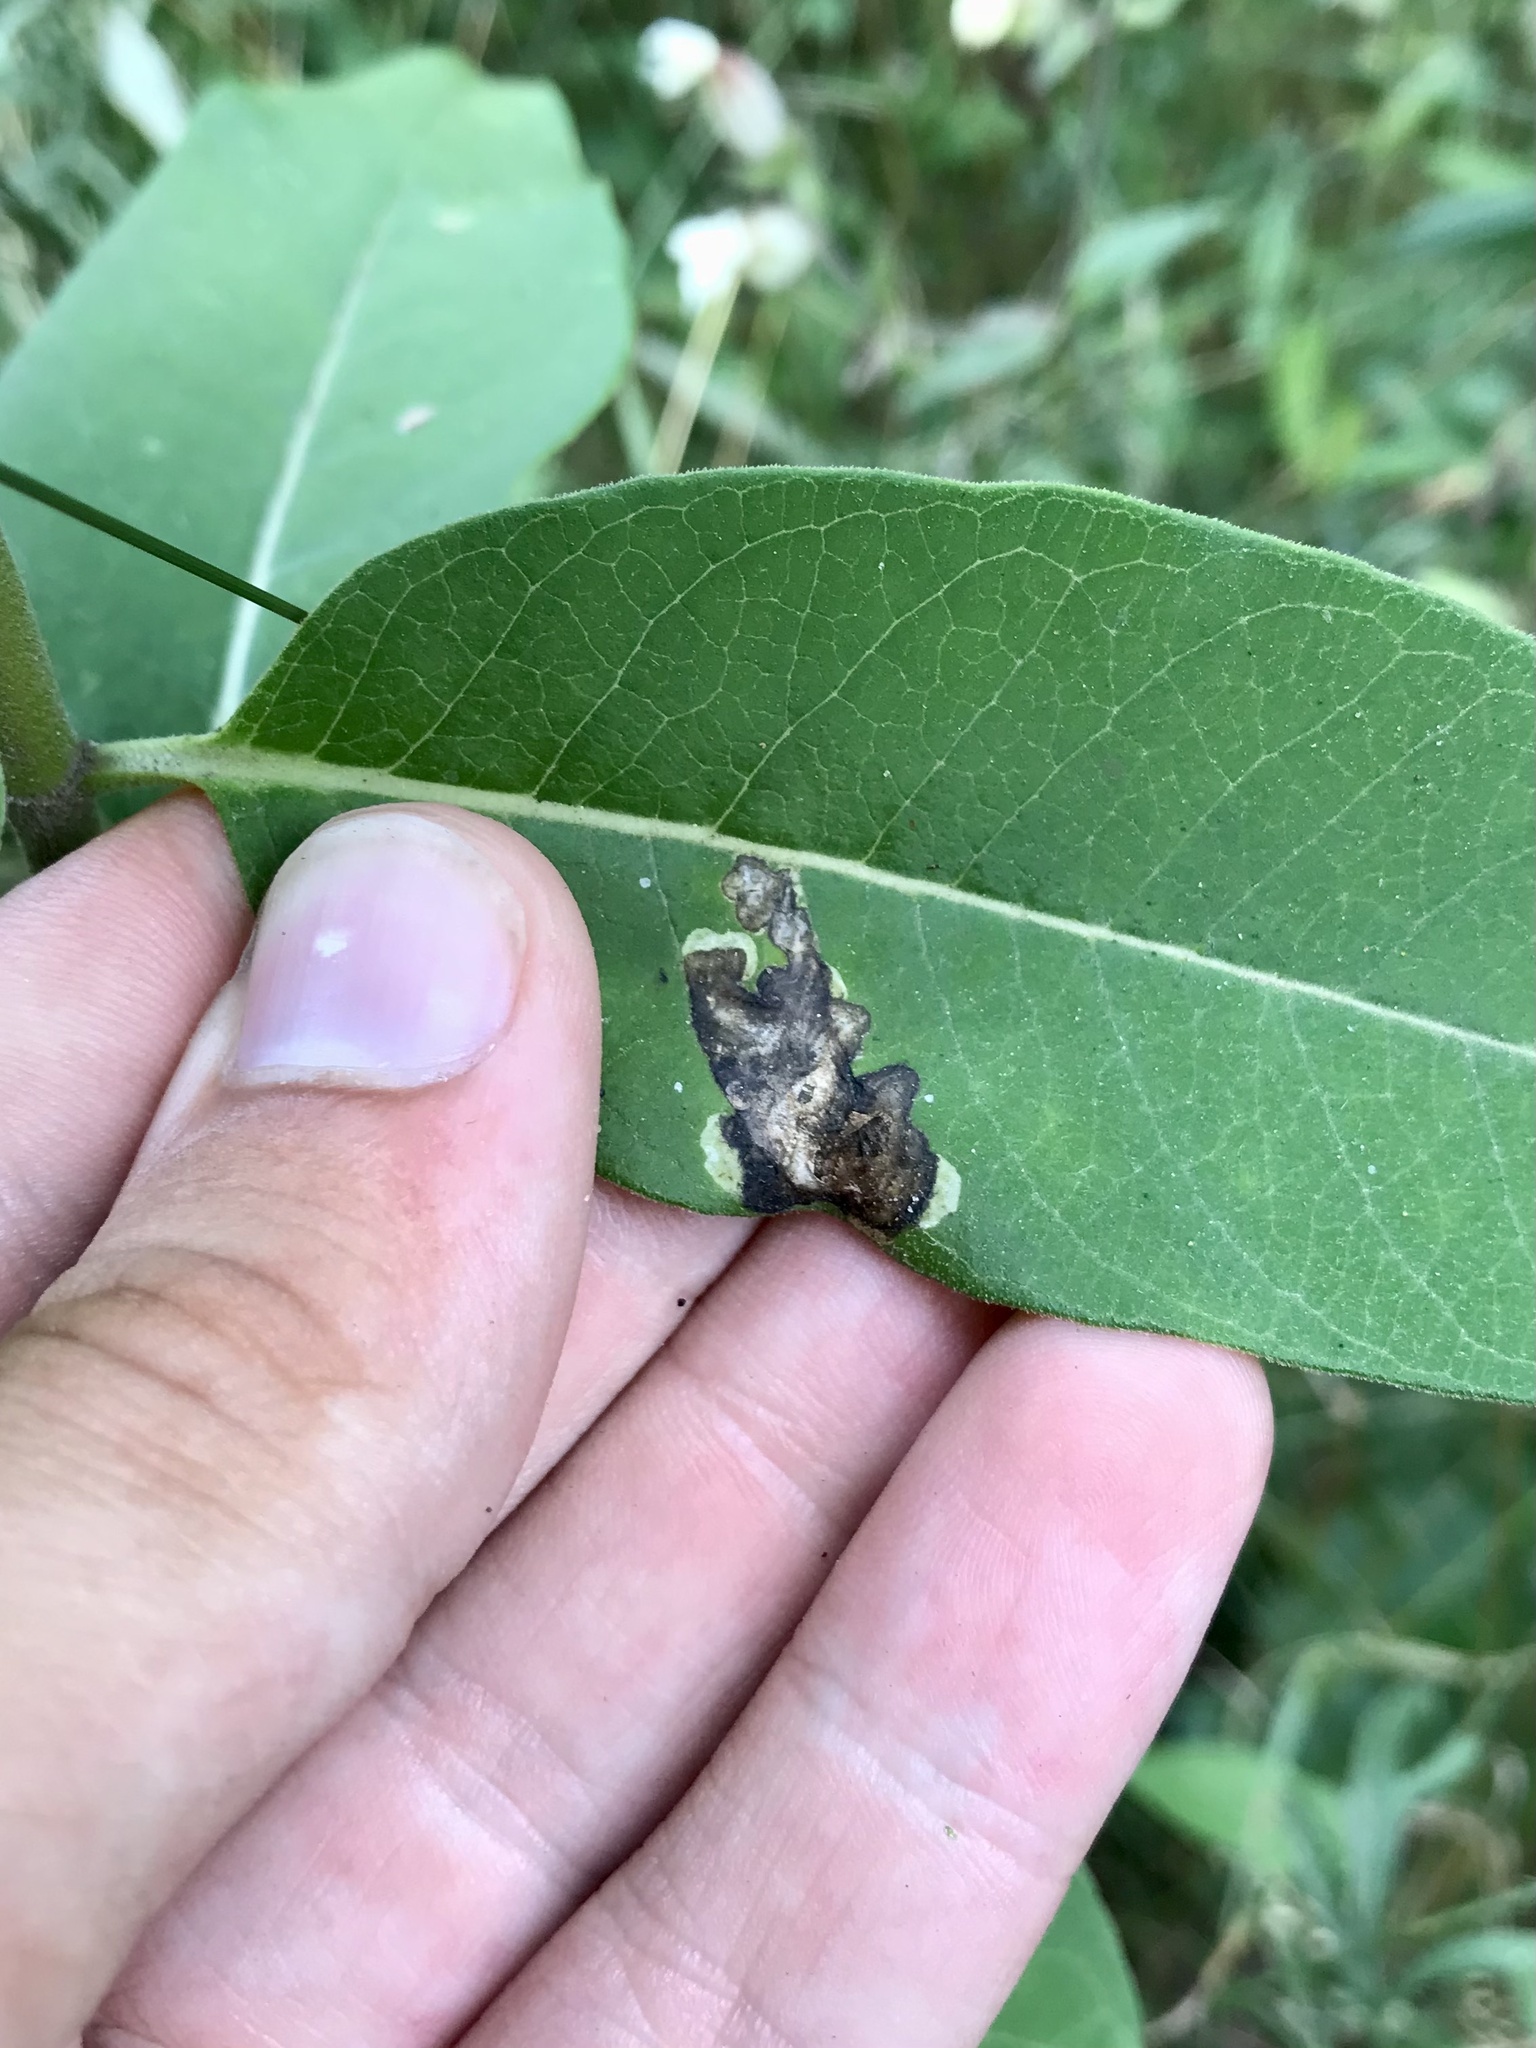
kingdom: Animalia
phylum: Arthropoda
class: Insecta
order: Diptera
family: Agromyzidae
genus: Liriomyza
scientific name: Liriomyza asclepiadis
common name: Milkweed leaf-miner fly
